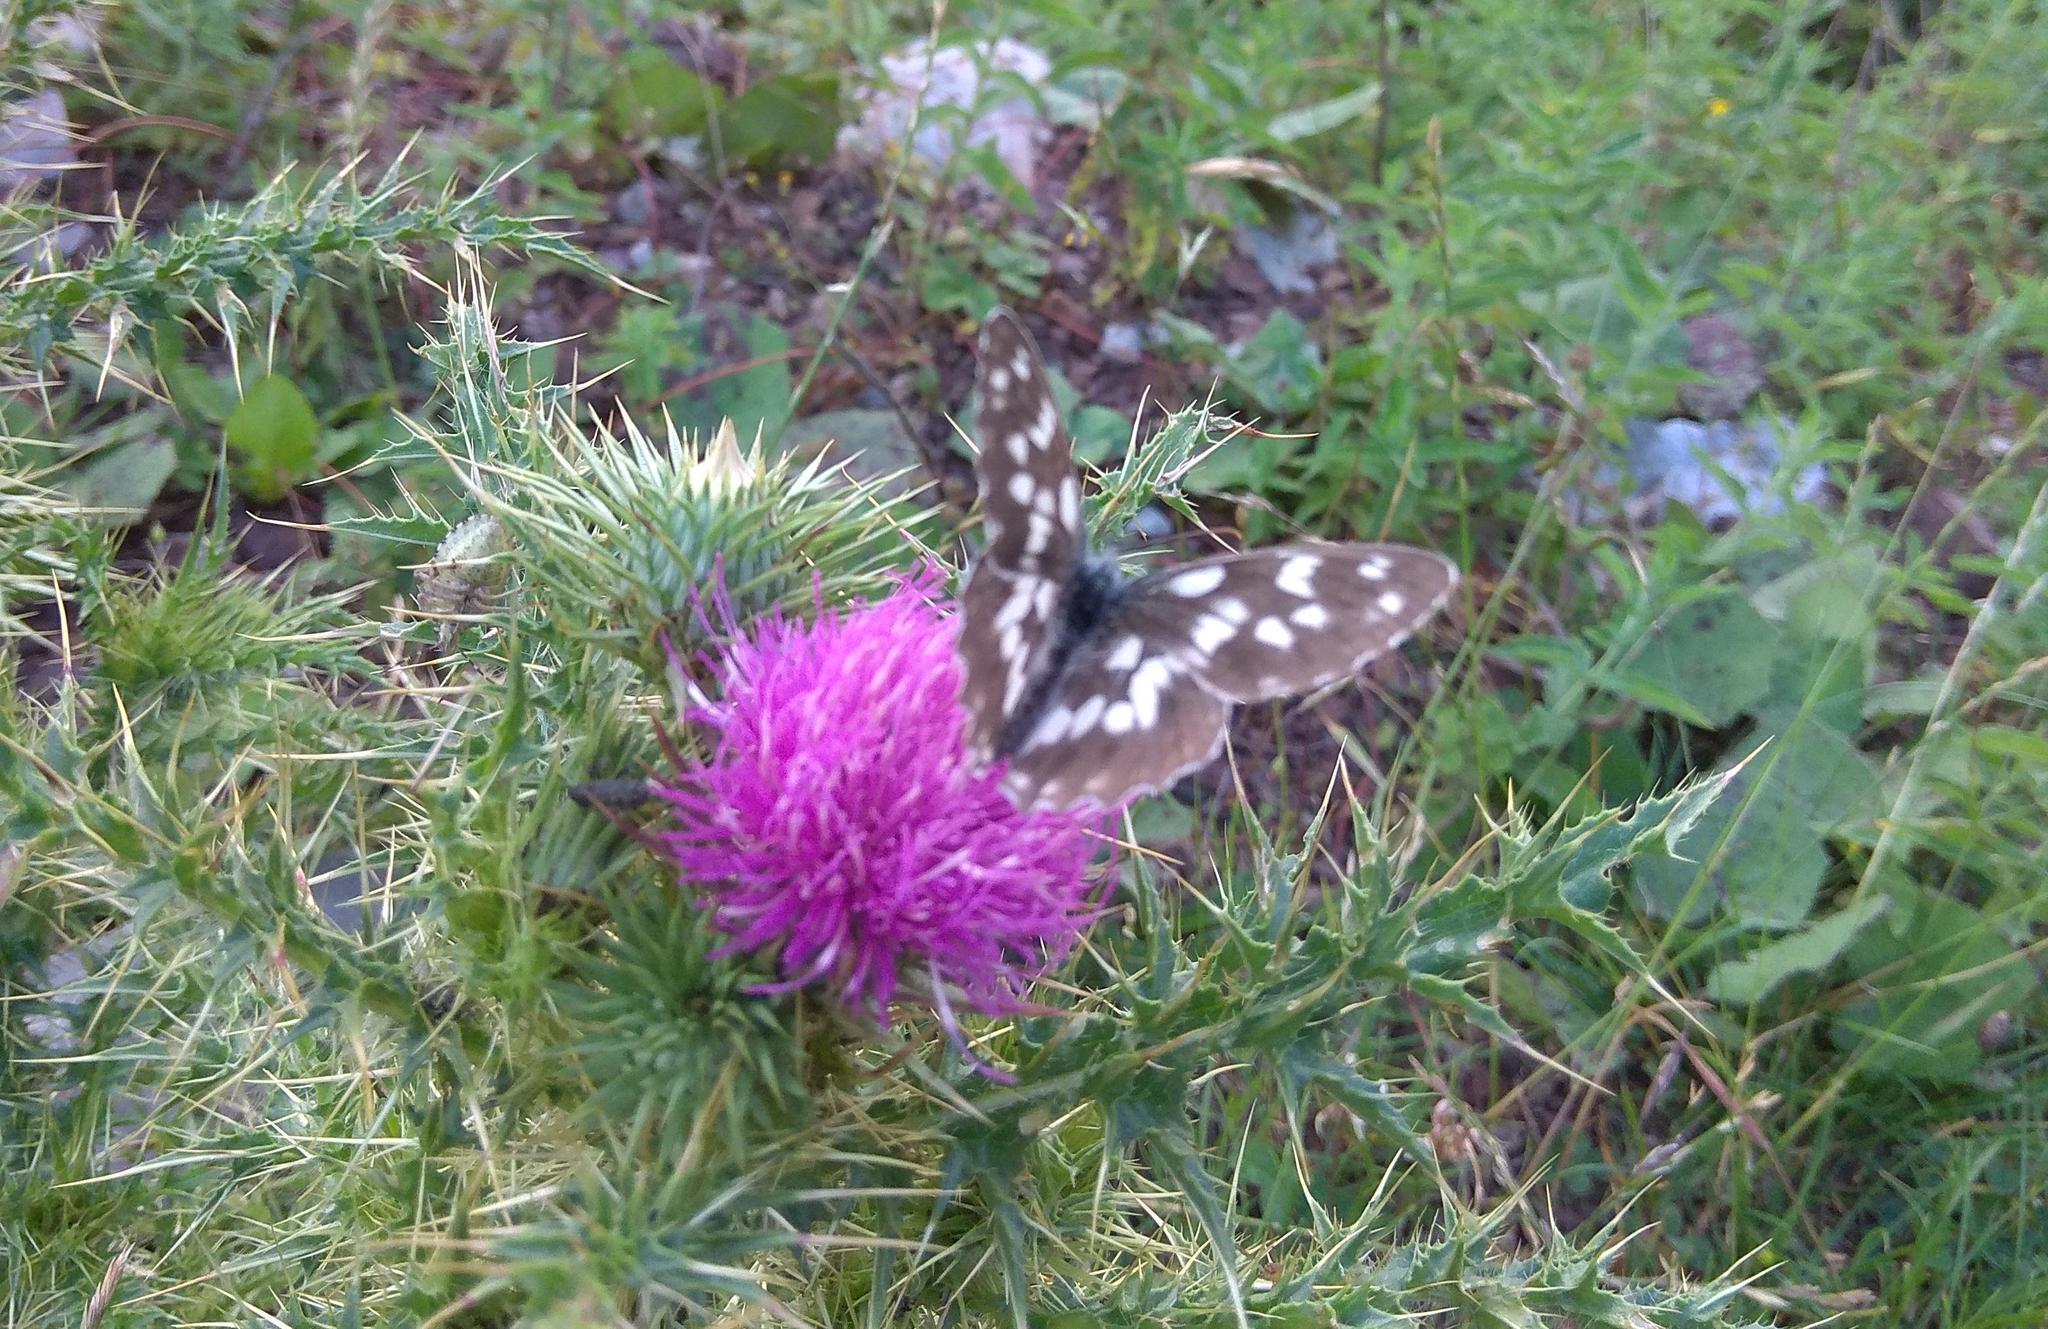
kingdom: Animalia
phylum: Arthropoda
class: Insecta
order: Lepidoptera
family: Nymphalidae
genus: Melanargia
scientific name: Melanargia galathea
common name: Marbled white
